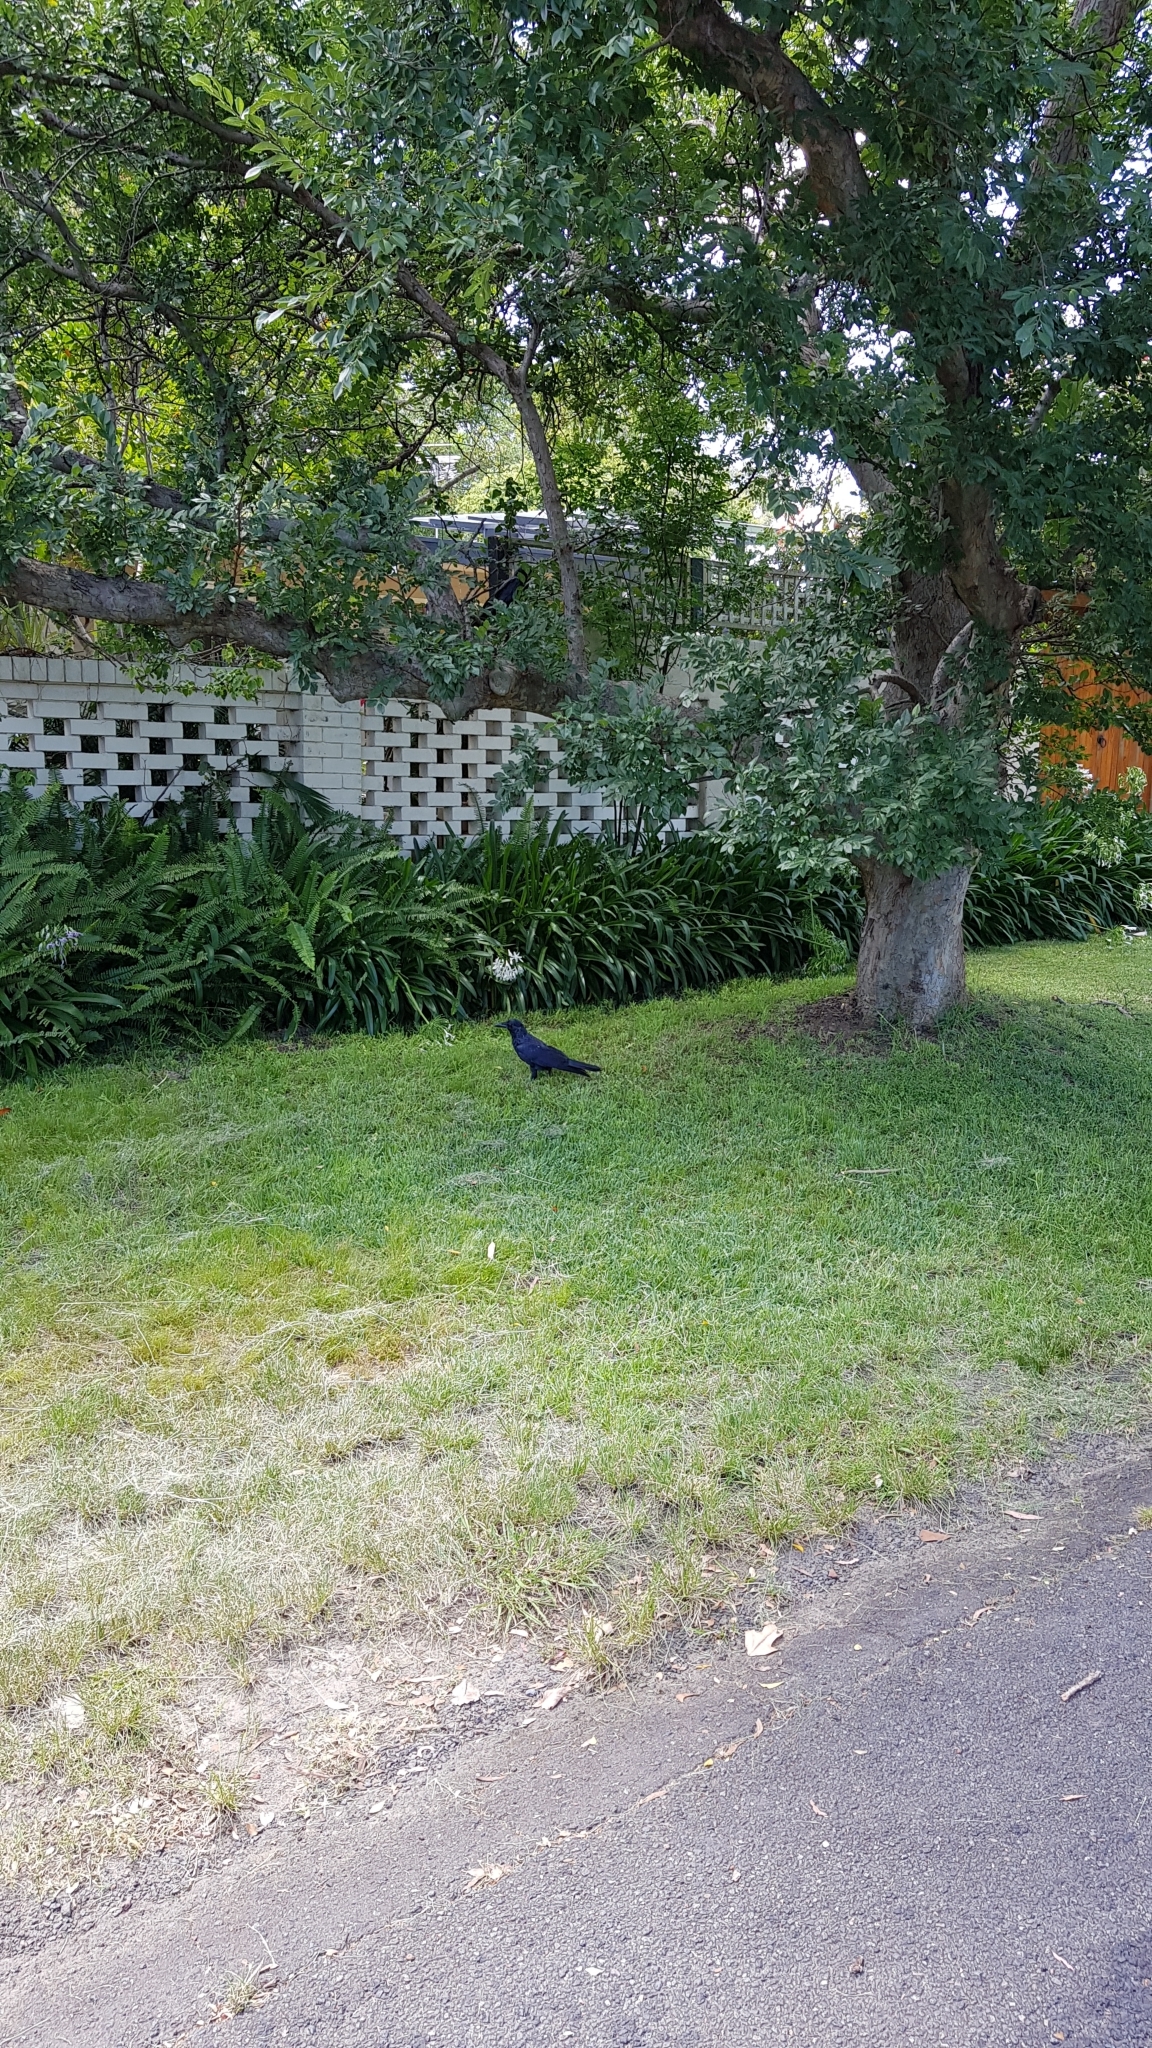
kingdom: Animalia
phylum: Chordata
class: Aves
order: Passeriformes
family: Corvidae
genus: Corvus
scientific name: Corvus coronoides
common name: Australian raven
